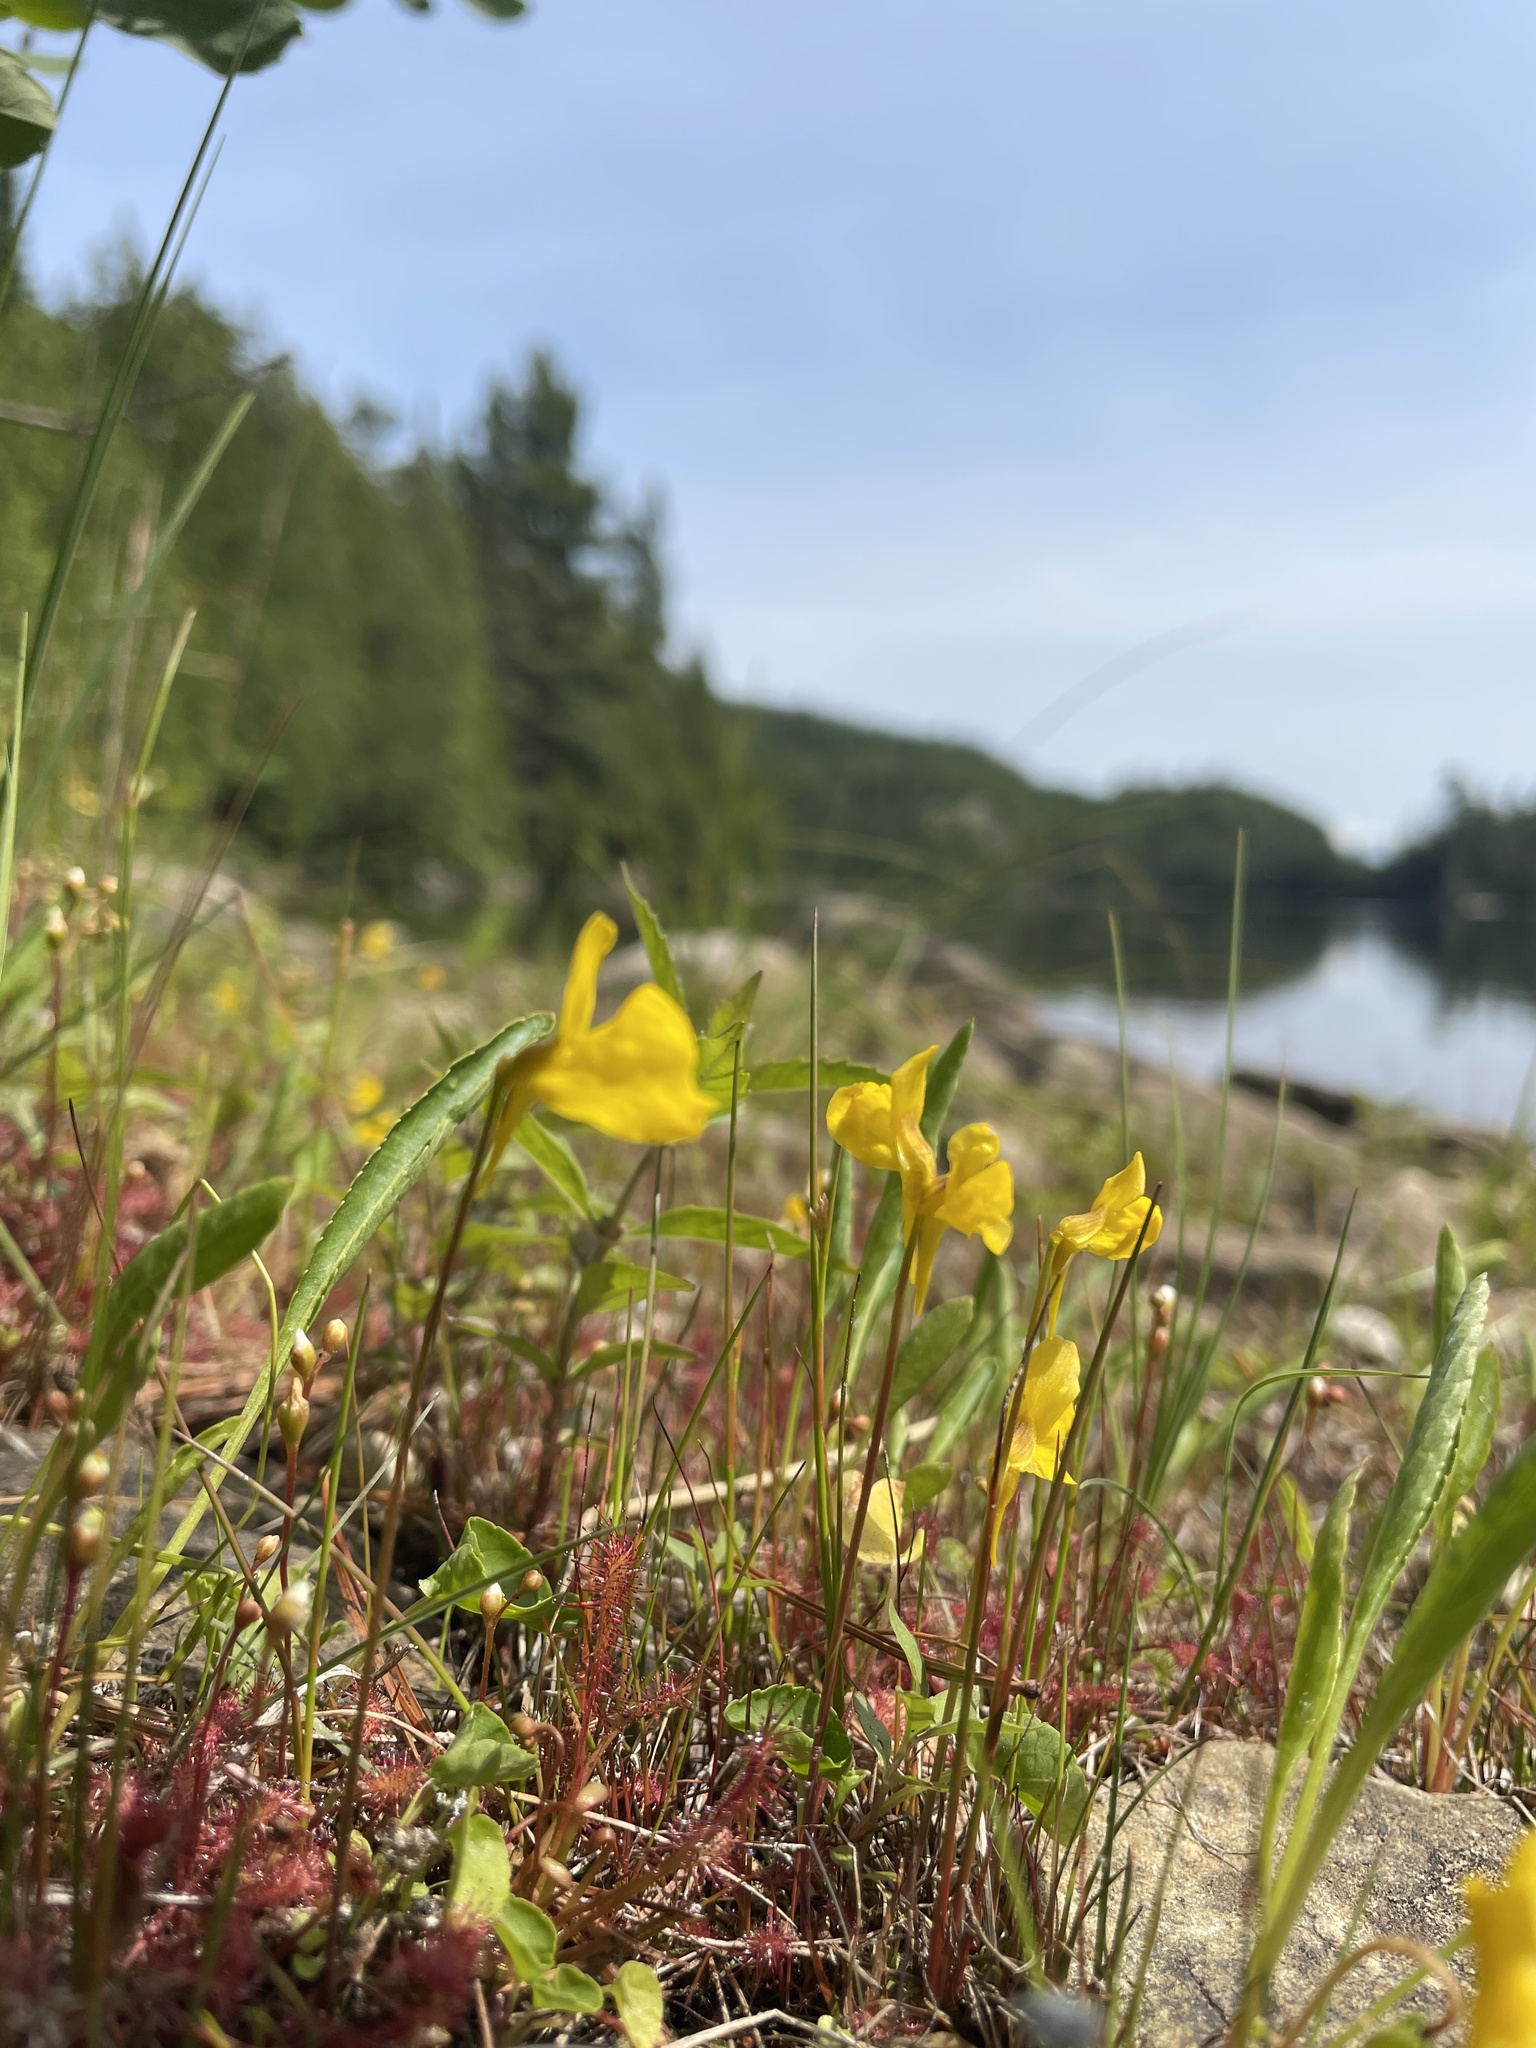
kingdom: Plantae
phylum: Tracheophyta
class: Magnoliopsida
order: Lamiales
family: Lentibulariaceae
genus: Utricularia
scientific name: Utricularia cornuta
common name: Horned bladderwort
